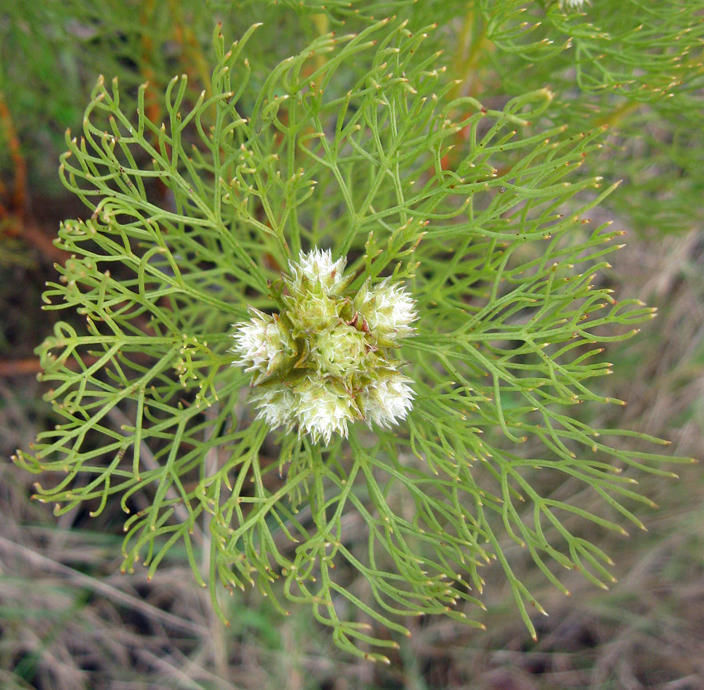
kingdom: Plantae
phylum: Tracheophyta
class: Magnoliopsida
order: Proteales
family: Proteaceae
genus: Serruria
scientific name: Serruria glomerata
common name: Cluster spiderhead
